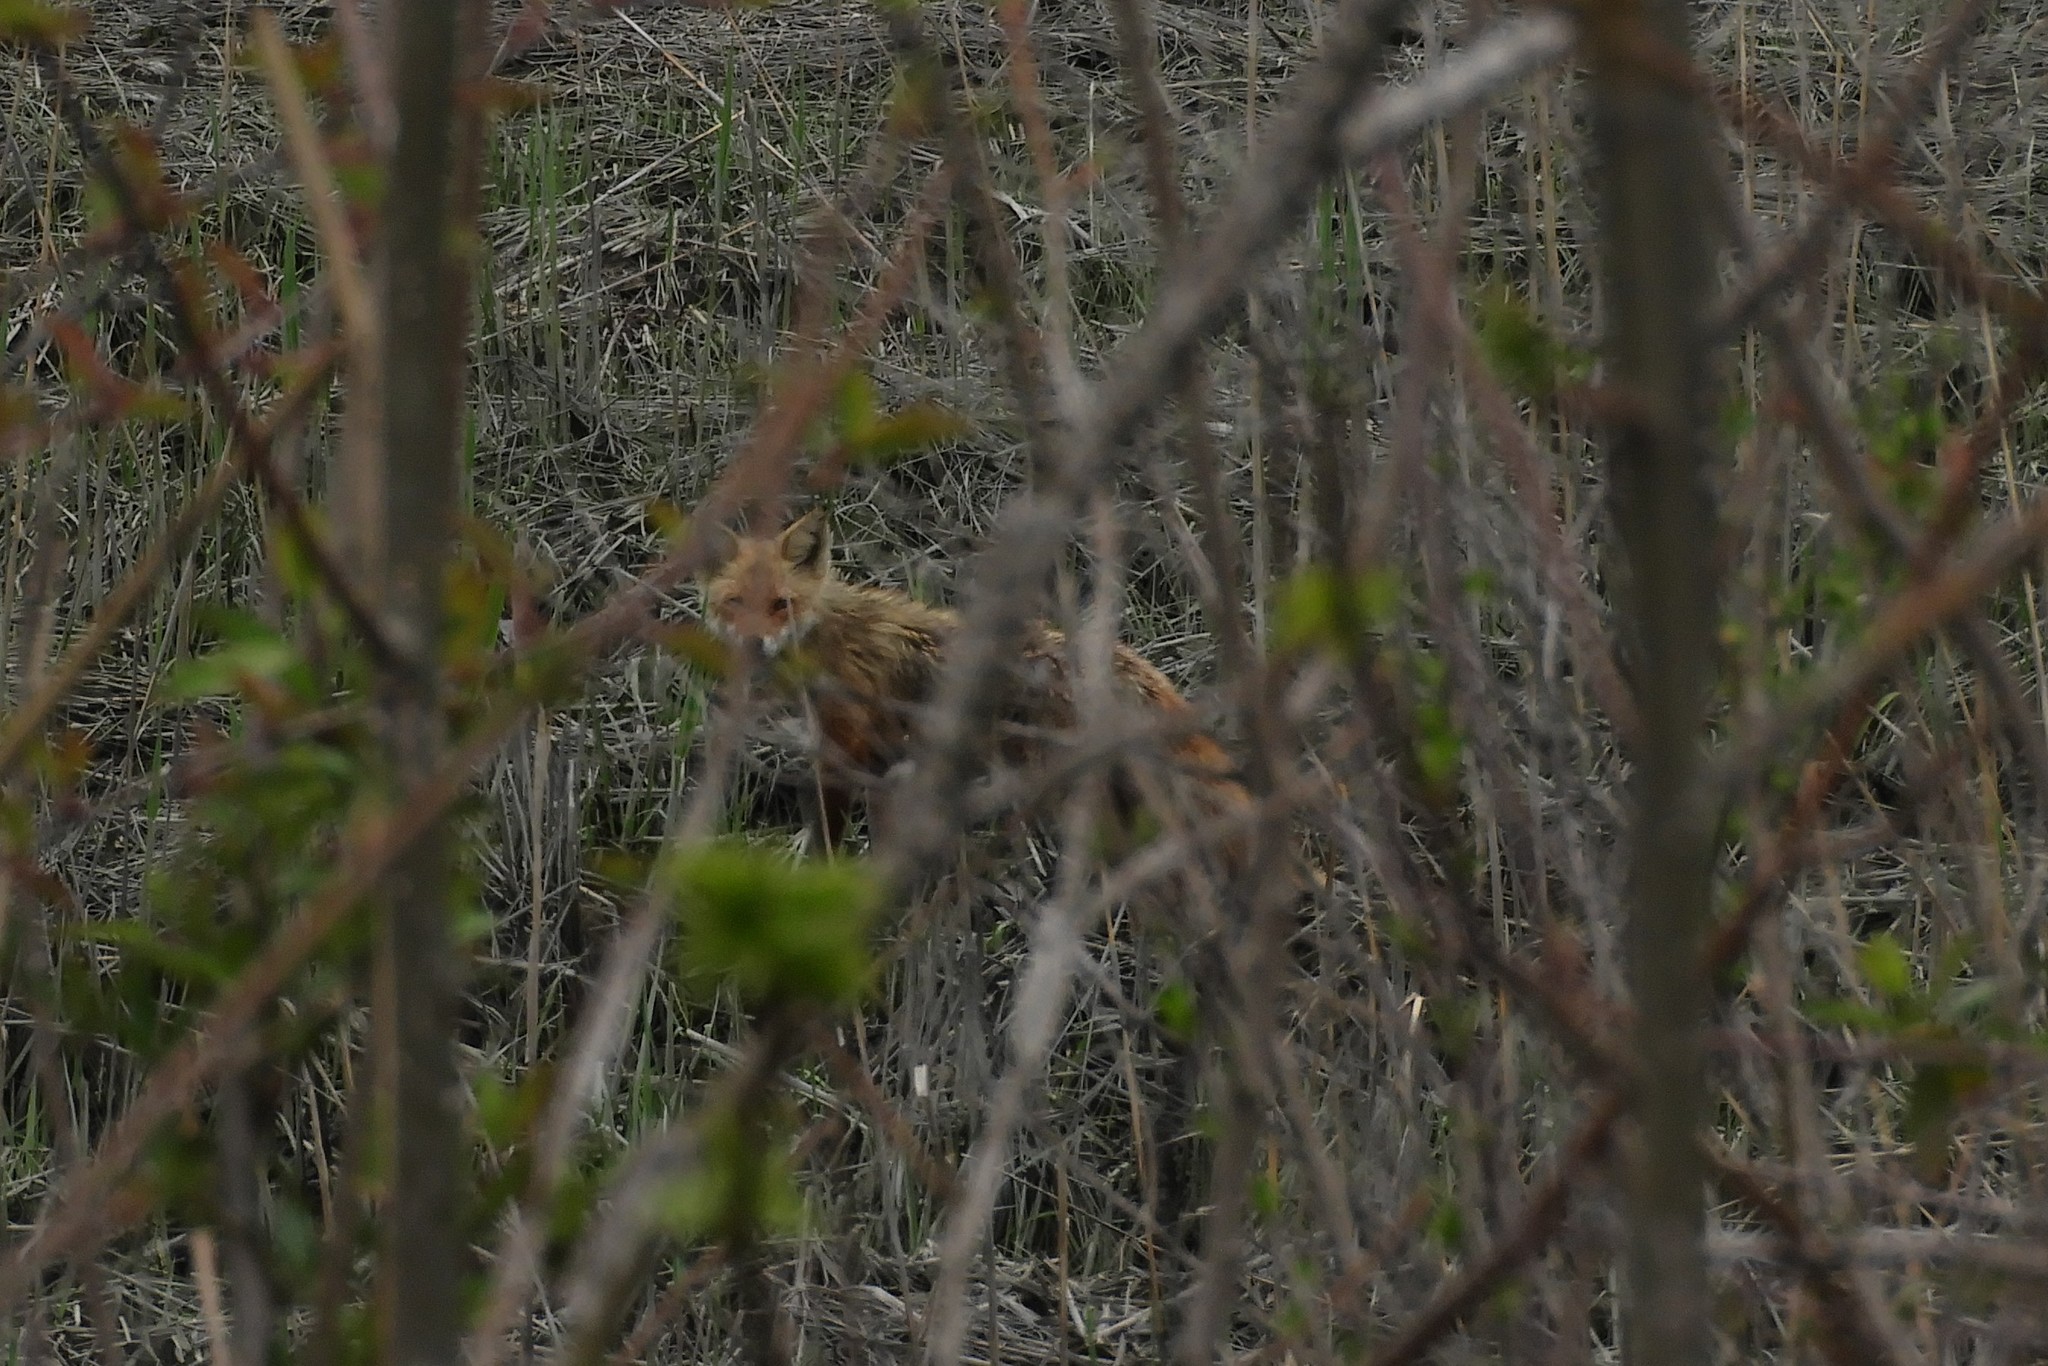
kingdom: Animalia
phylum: Chordata
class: Mammalia
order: Carnivora
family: Canidae
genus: Vulpes
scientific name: Vulpes vulpes
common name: Red fox
